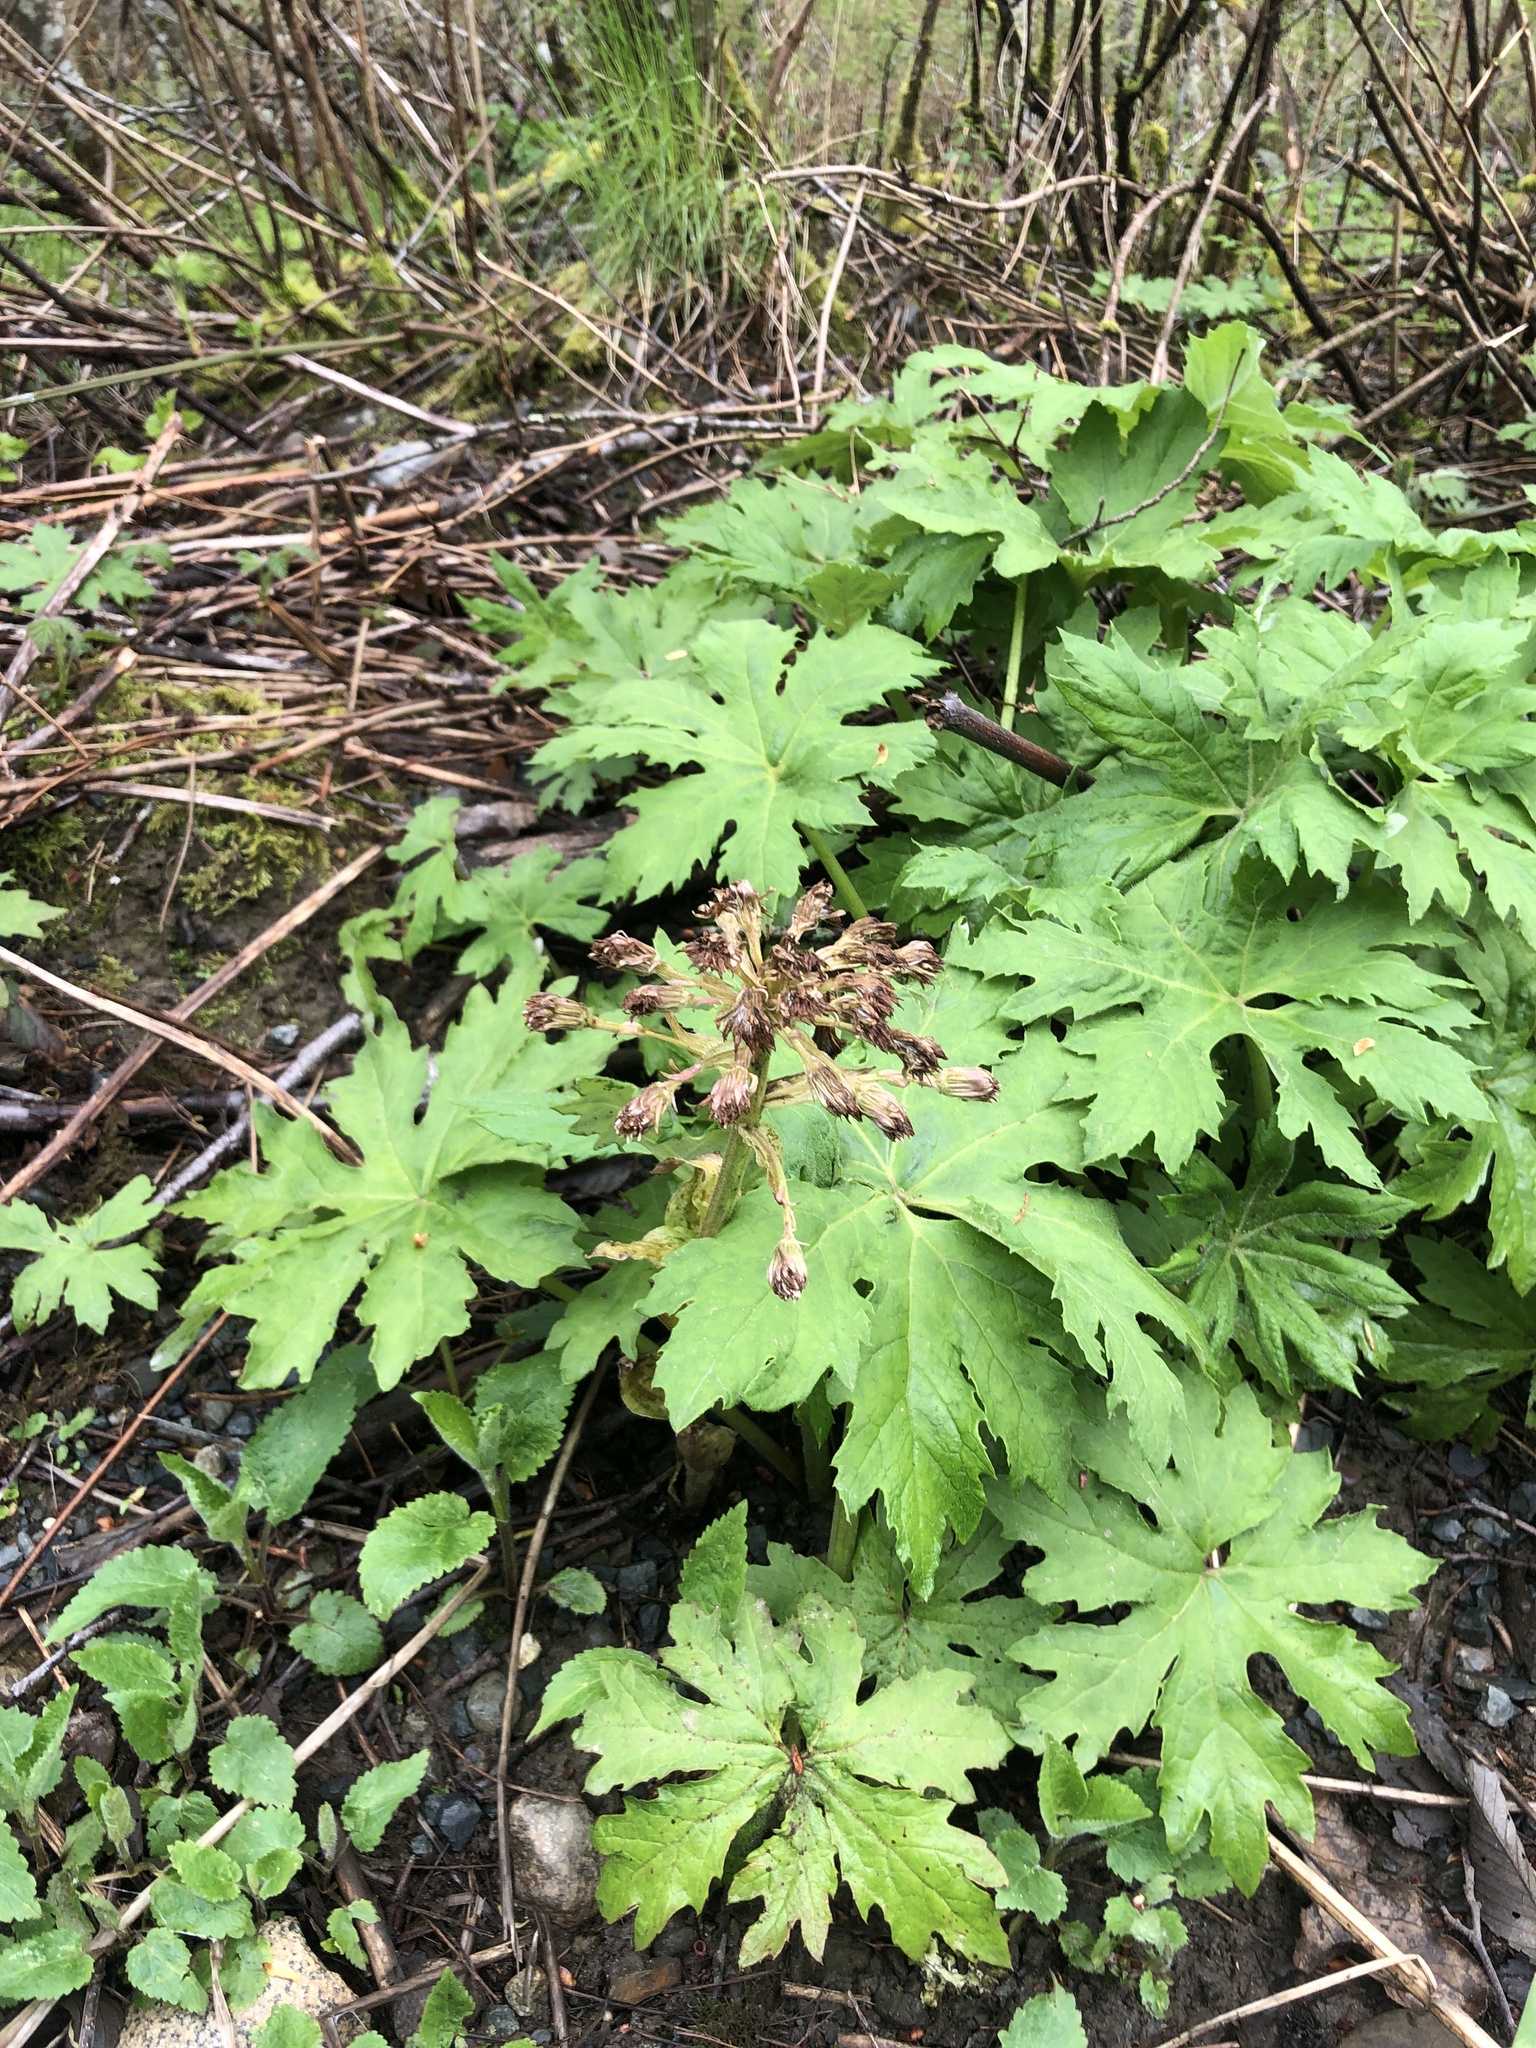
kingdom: Plantae
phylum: Tracheophyta
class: Magnoliopsida
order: Asterales
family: Asteraceae
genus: Petasites
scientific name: Petasites frigidus
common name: Arctic butterbur
